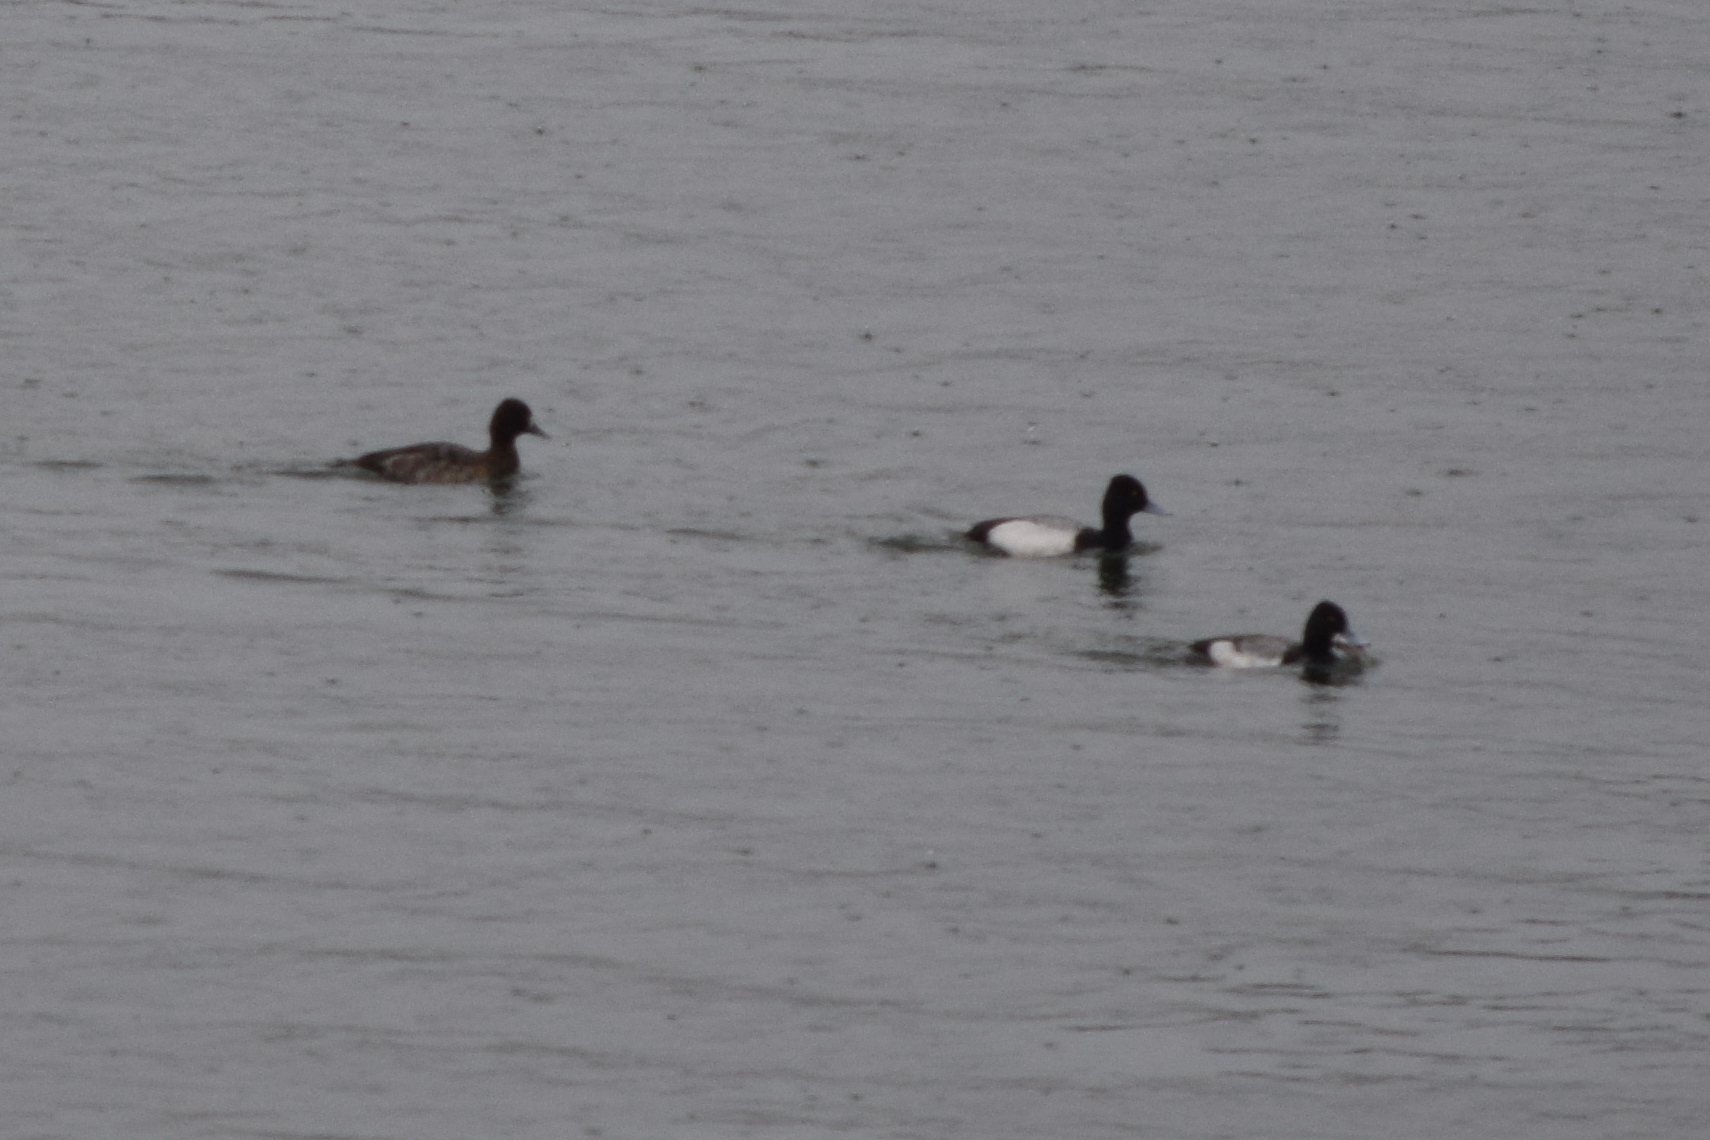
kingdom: Animalia
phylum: Chordata
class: Aves
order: Anseriformes
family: Anatidae
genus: Aythya
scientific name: Aythya affinis
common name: Lesser scaup
